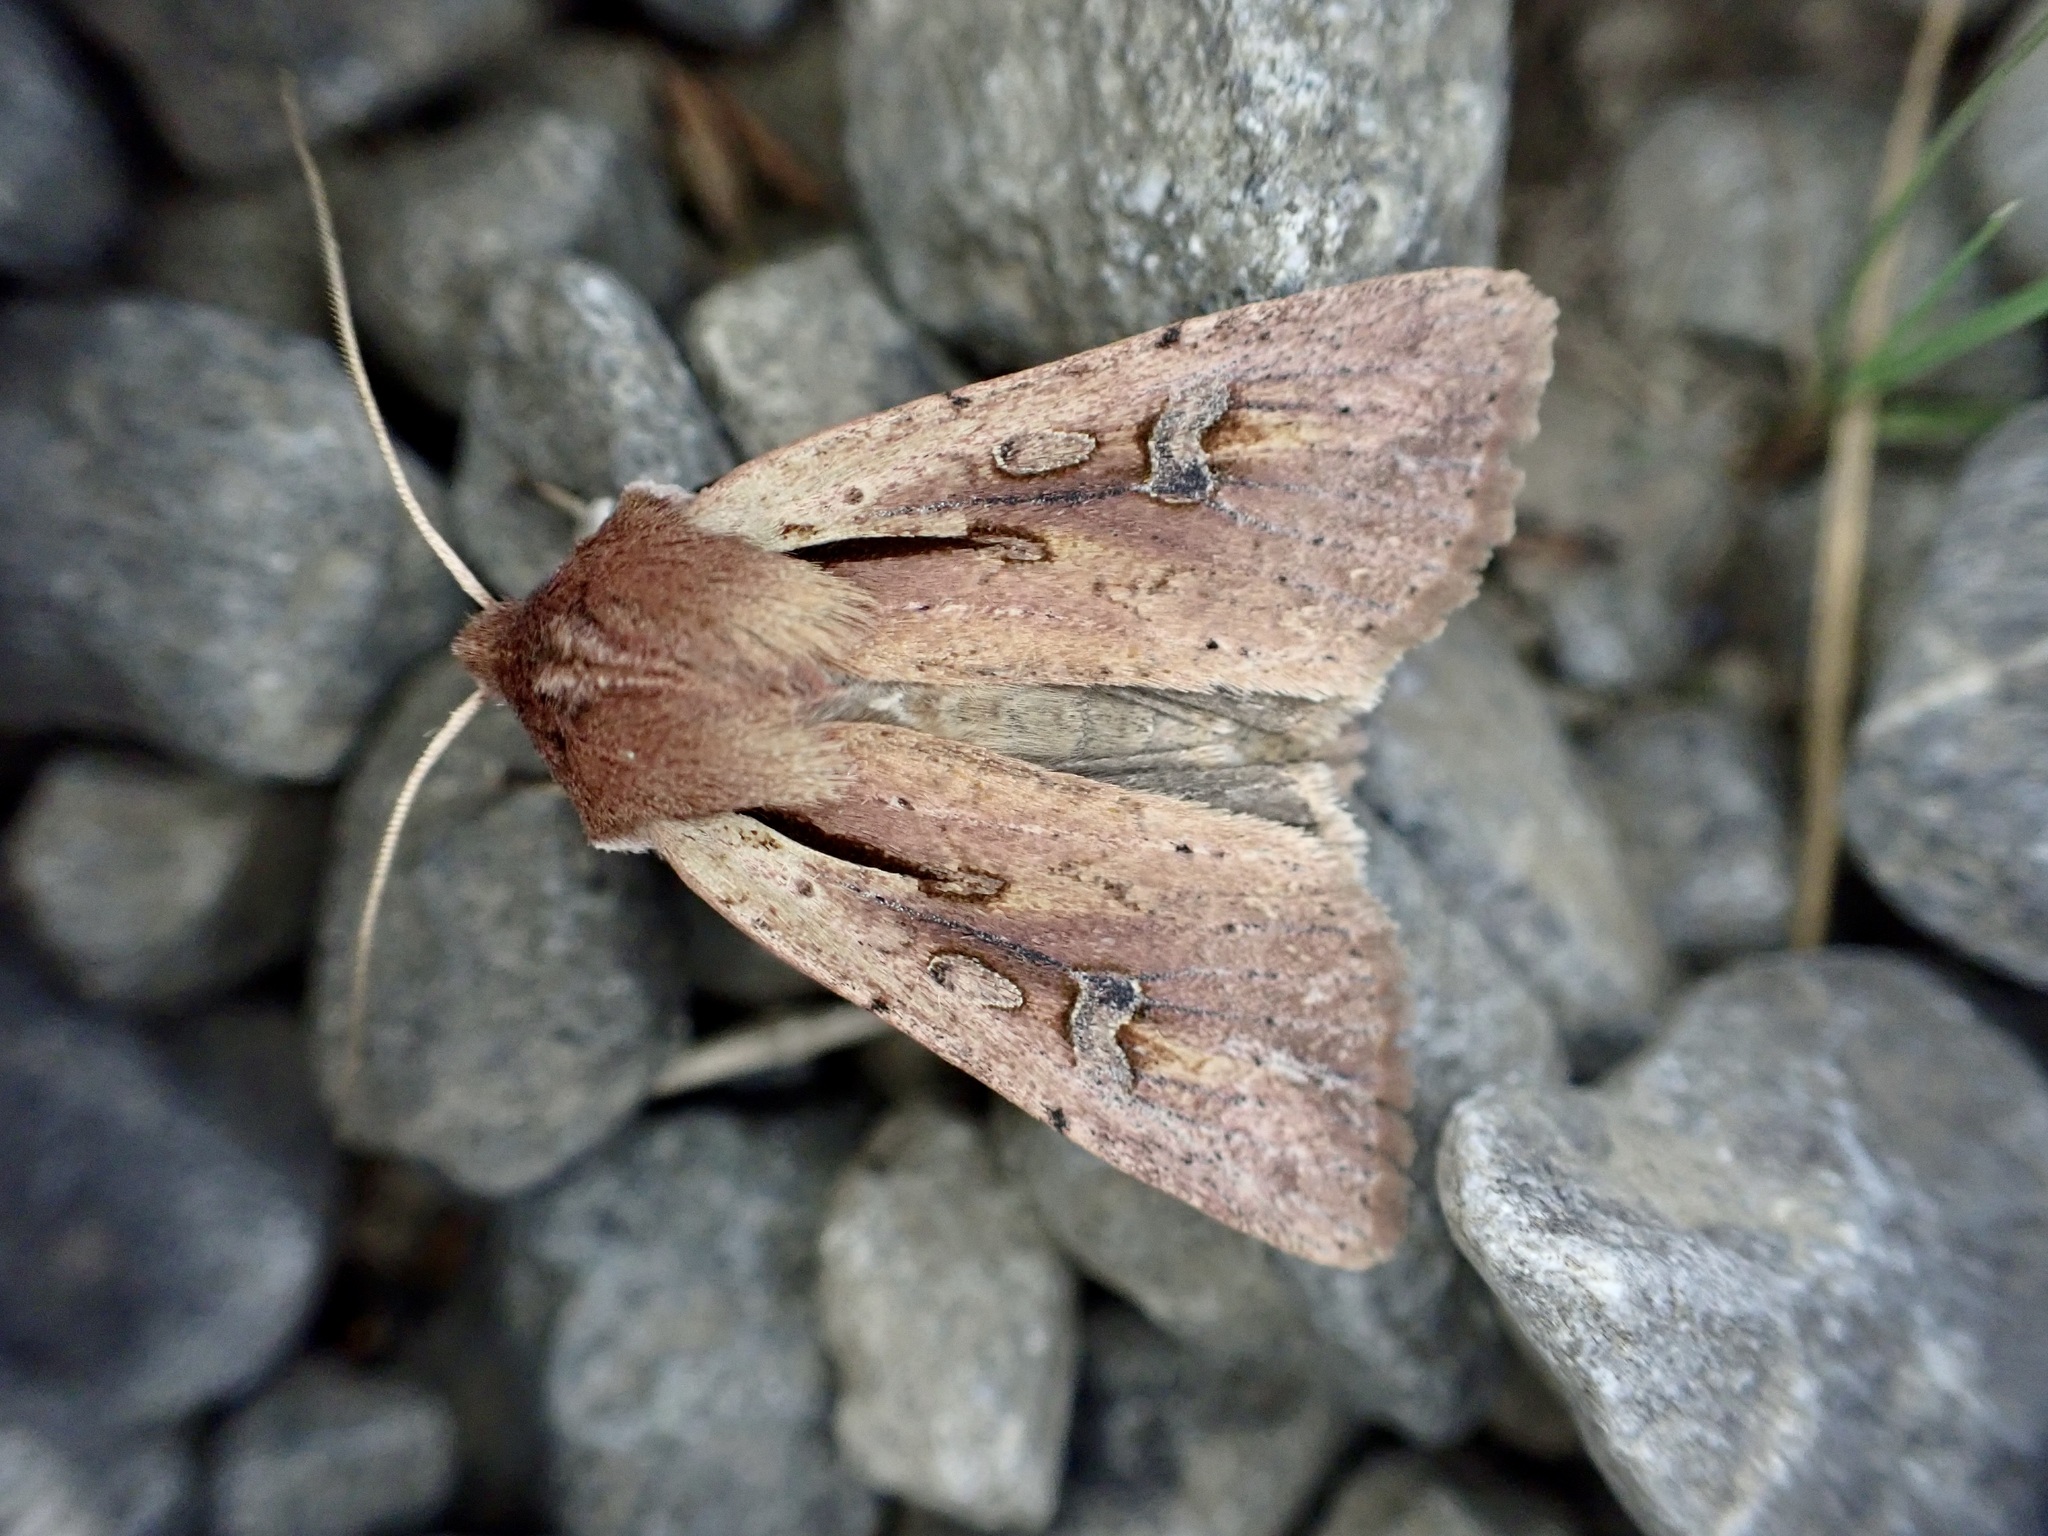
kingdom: Animalia
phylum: Arthropoda
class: Insecta
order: Lepidoptera
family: Noctuidae
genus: Ichneutica
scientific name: Ichneutica atristriga
